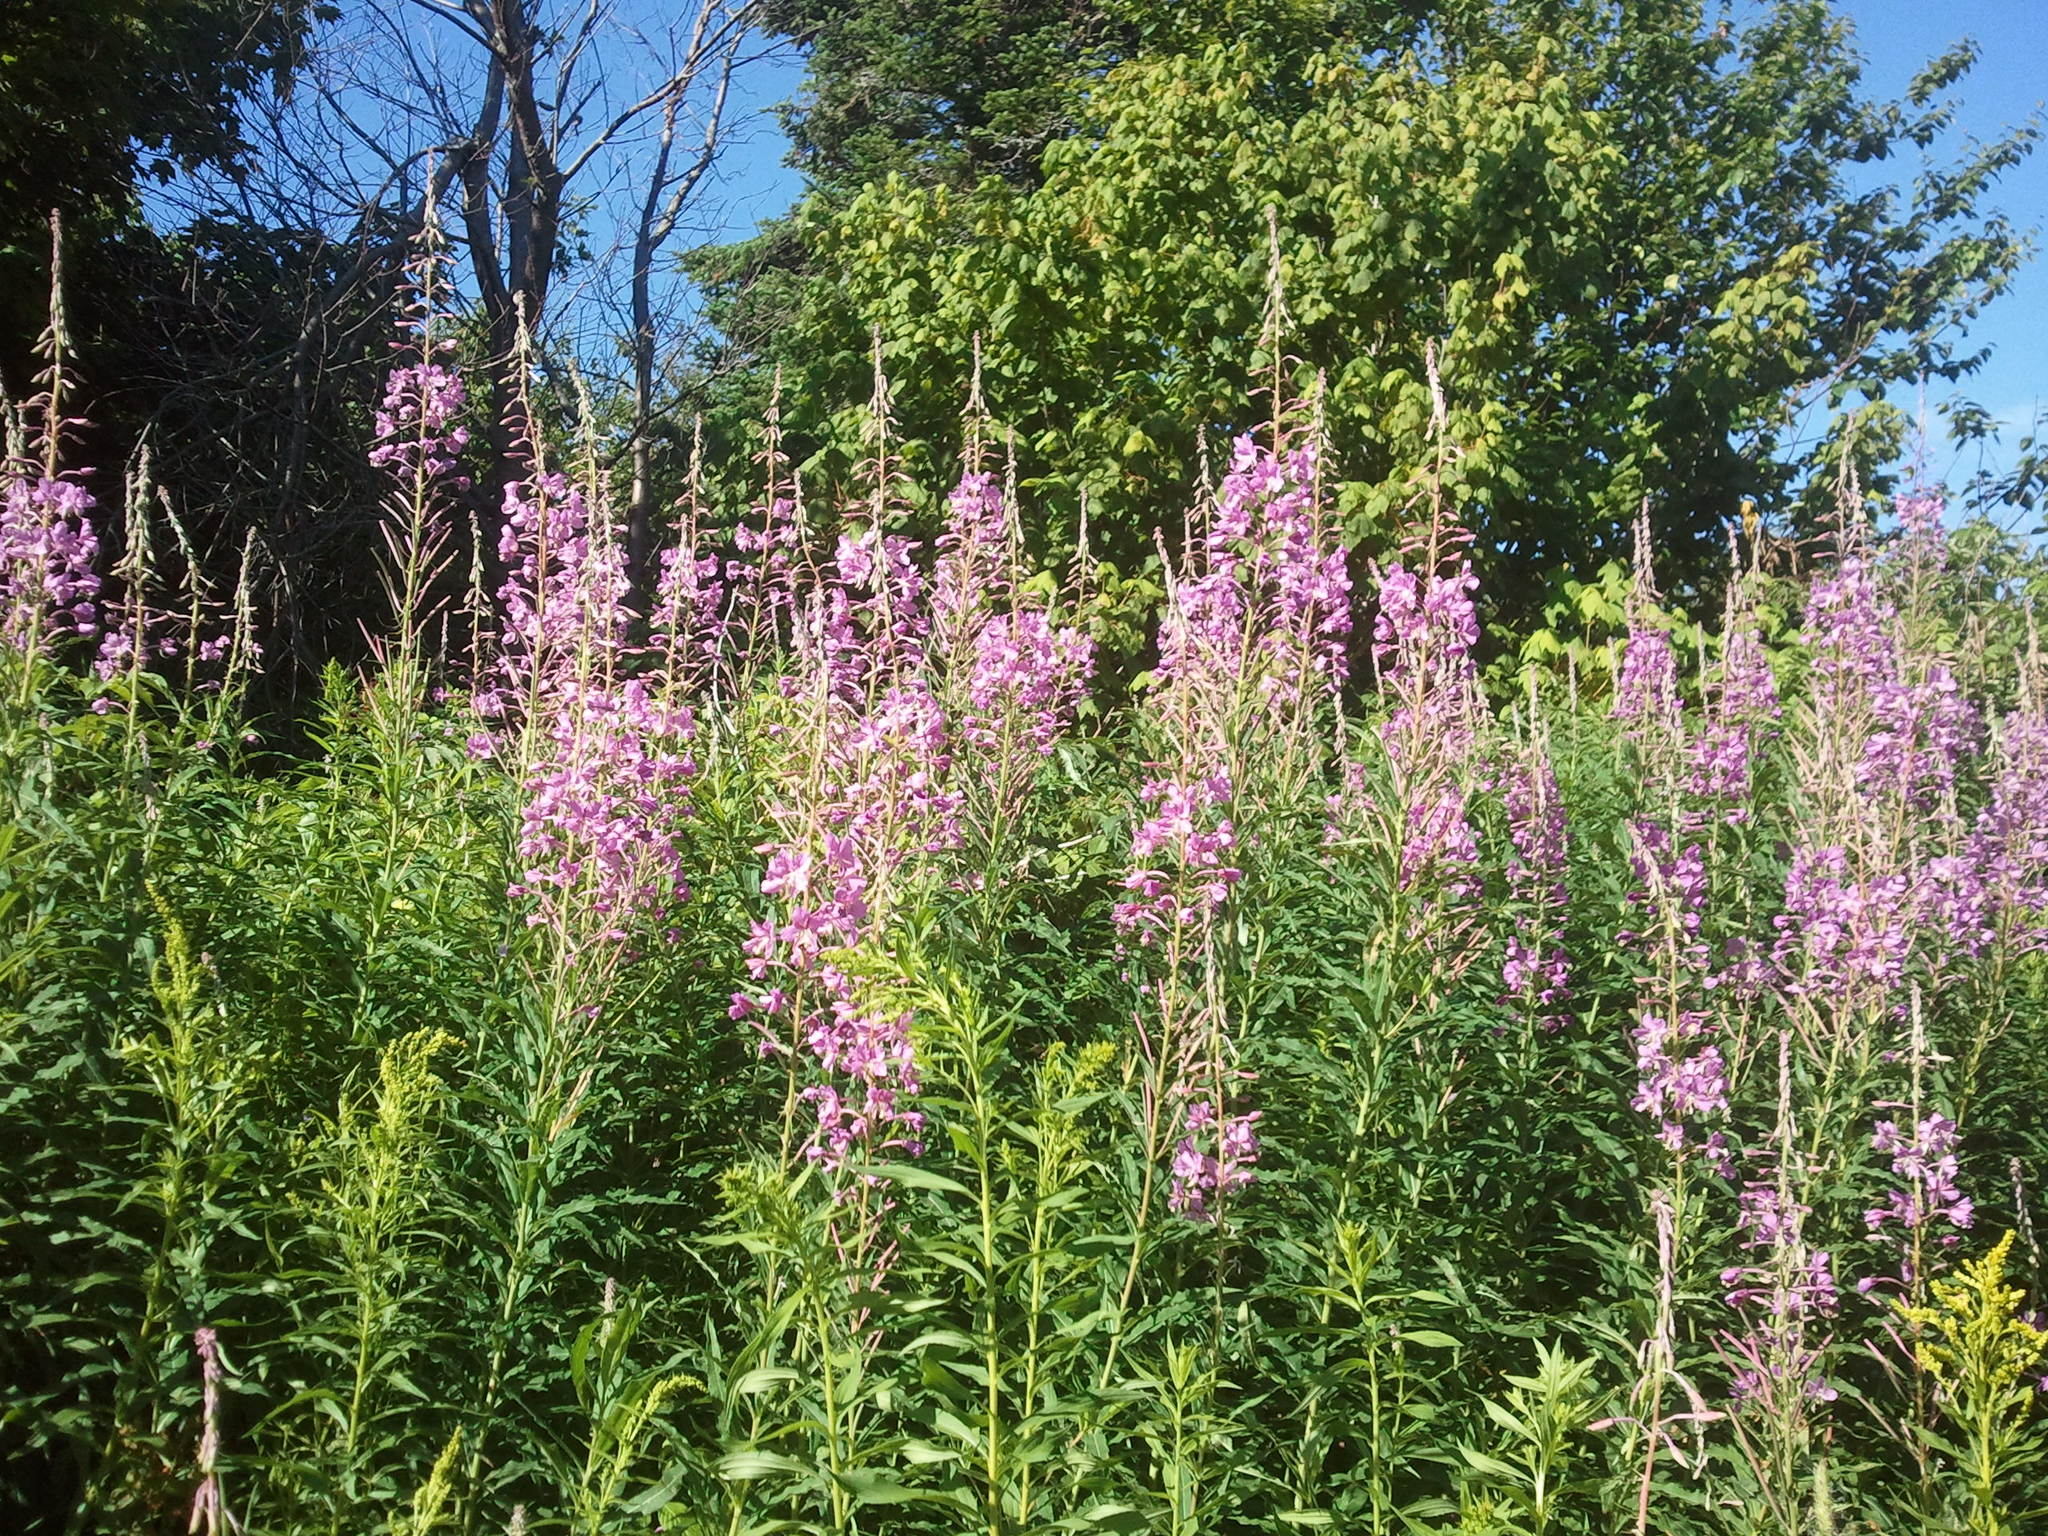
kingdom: Plantae
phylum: Tracheophyta
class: Magnoliopsida
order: Myrtales
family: Onagraceae
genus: Chamaenerion
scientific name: Chamaenerion angustifolium
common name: Fireweed
